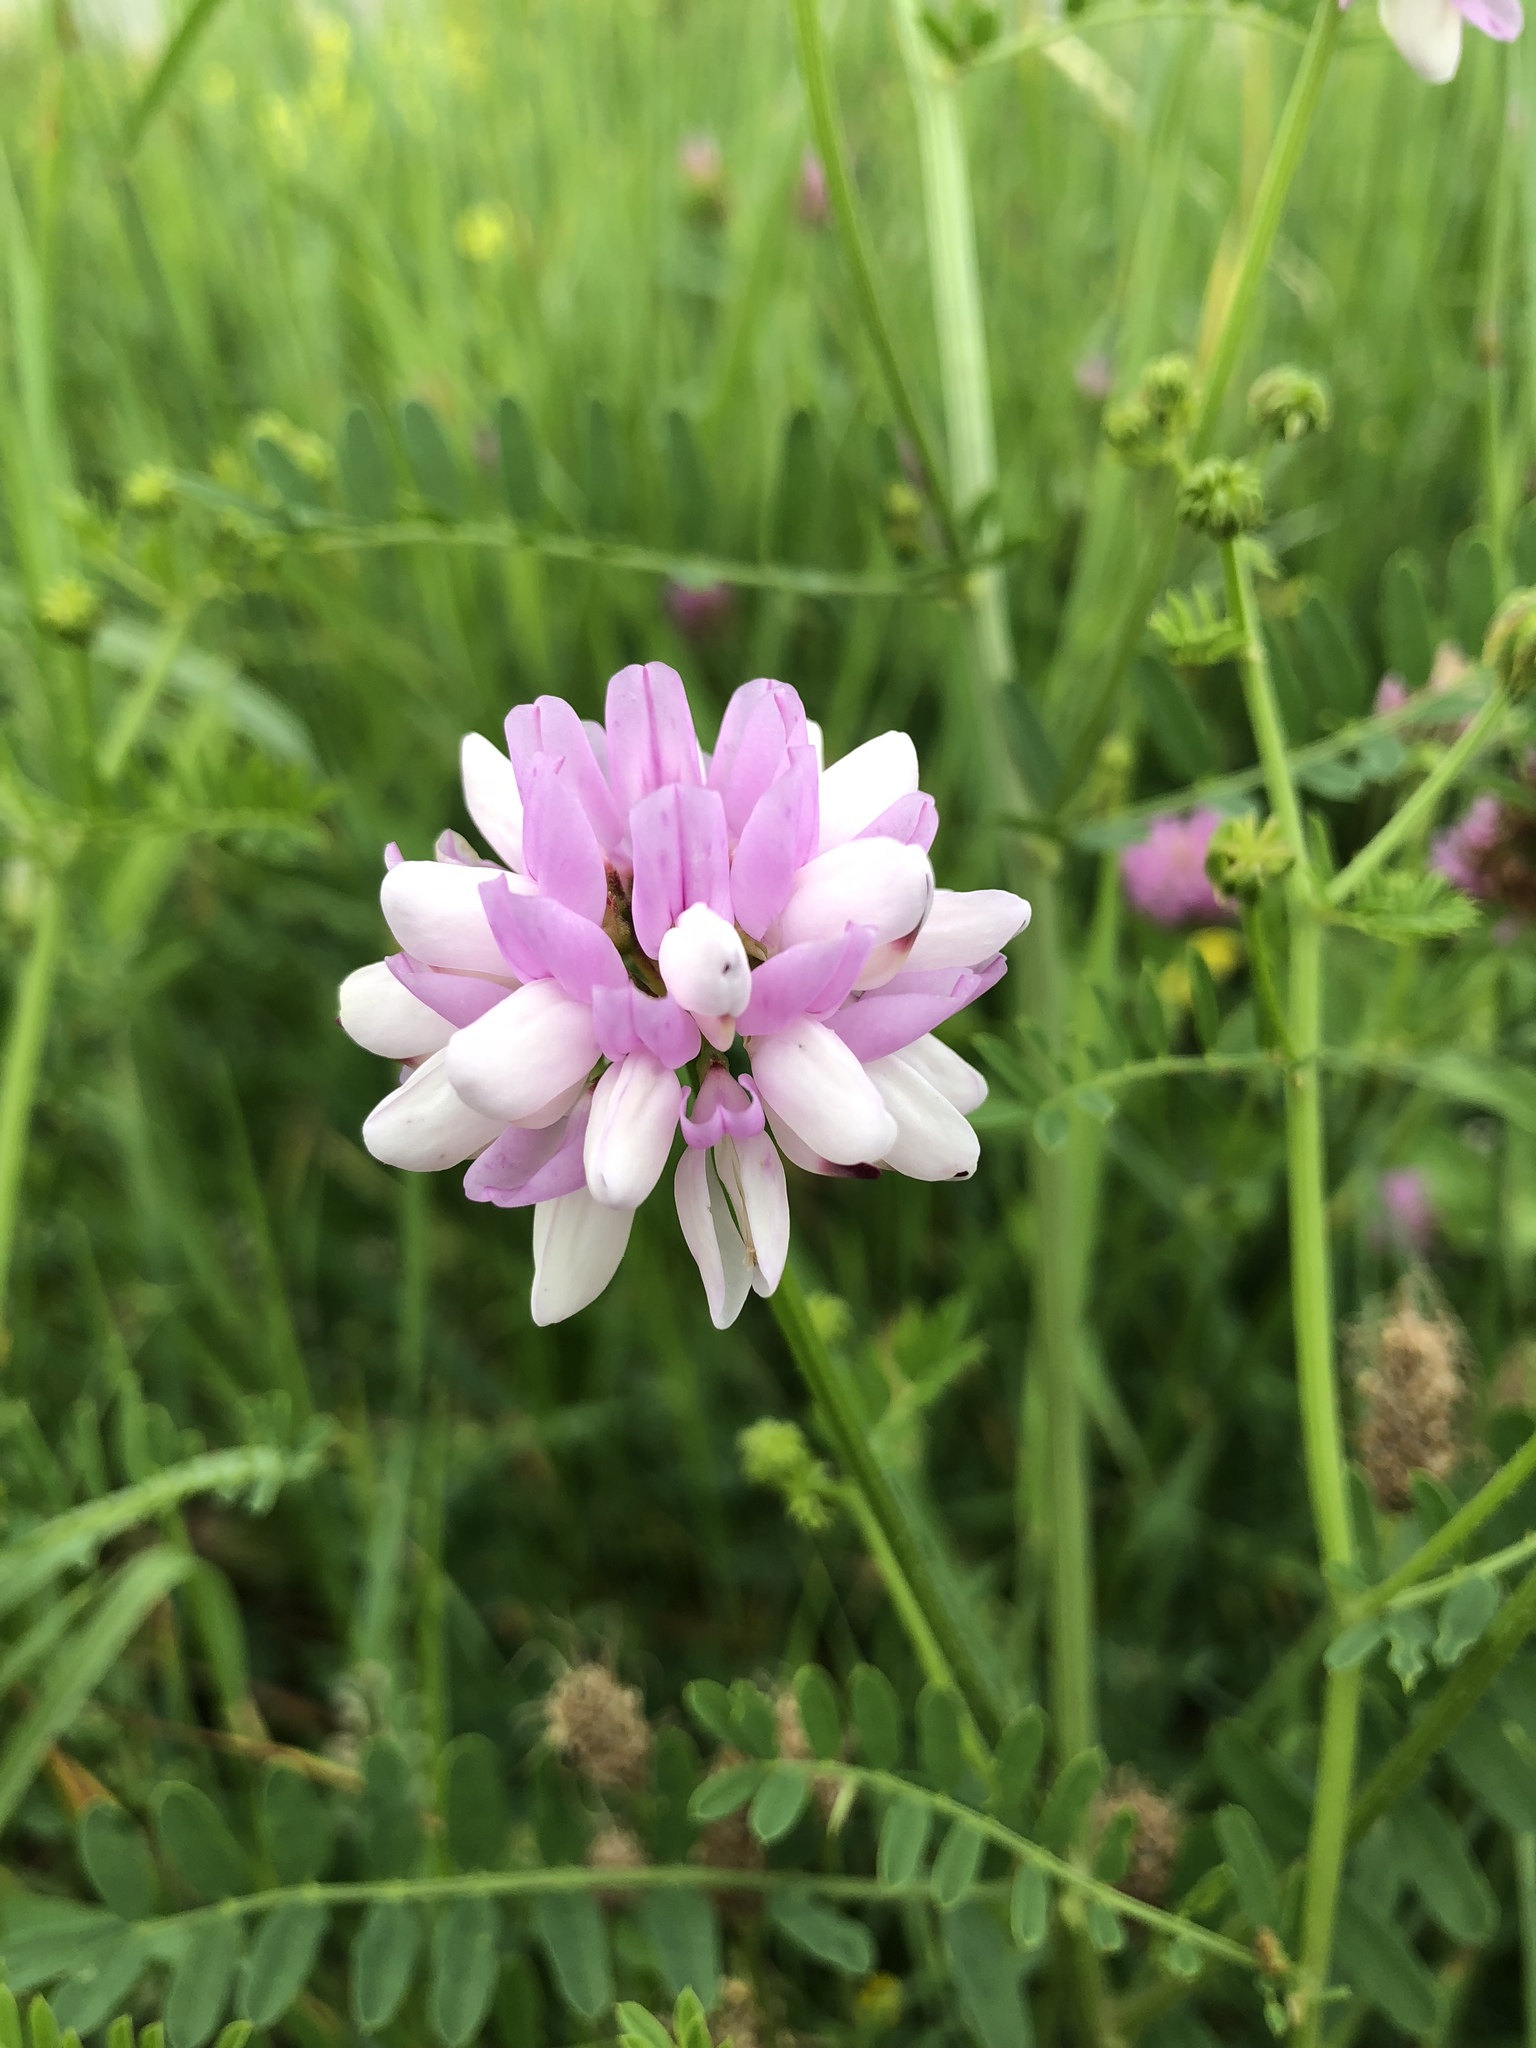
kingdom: Plantae
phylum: Tracheophyta
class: Magnoliopsida
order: Fabales
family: Fabaceae
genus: Coronilla
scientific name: Coronilla varia
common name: Crownvetch
